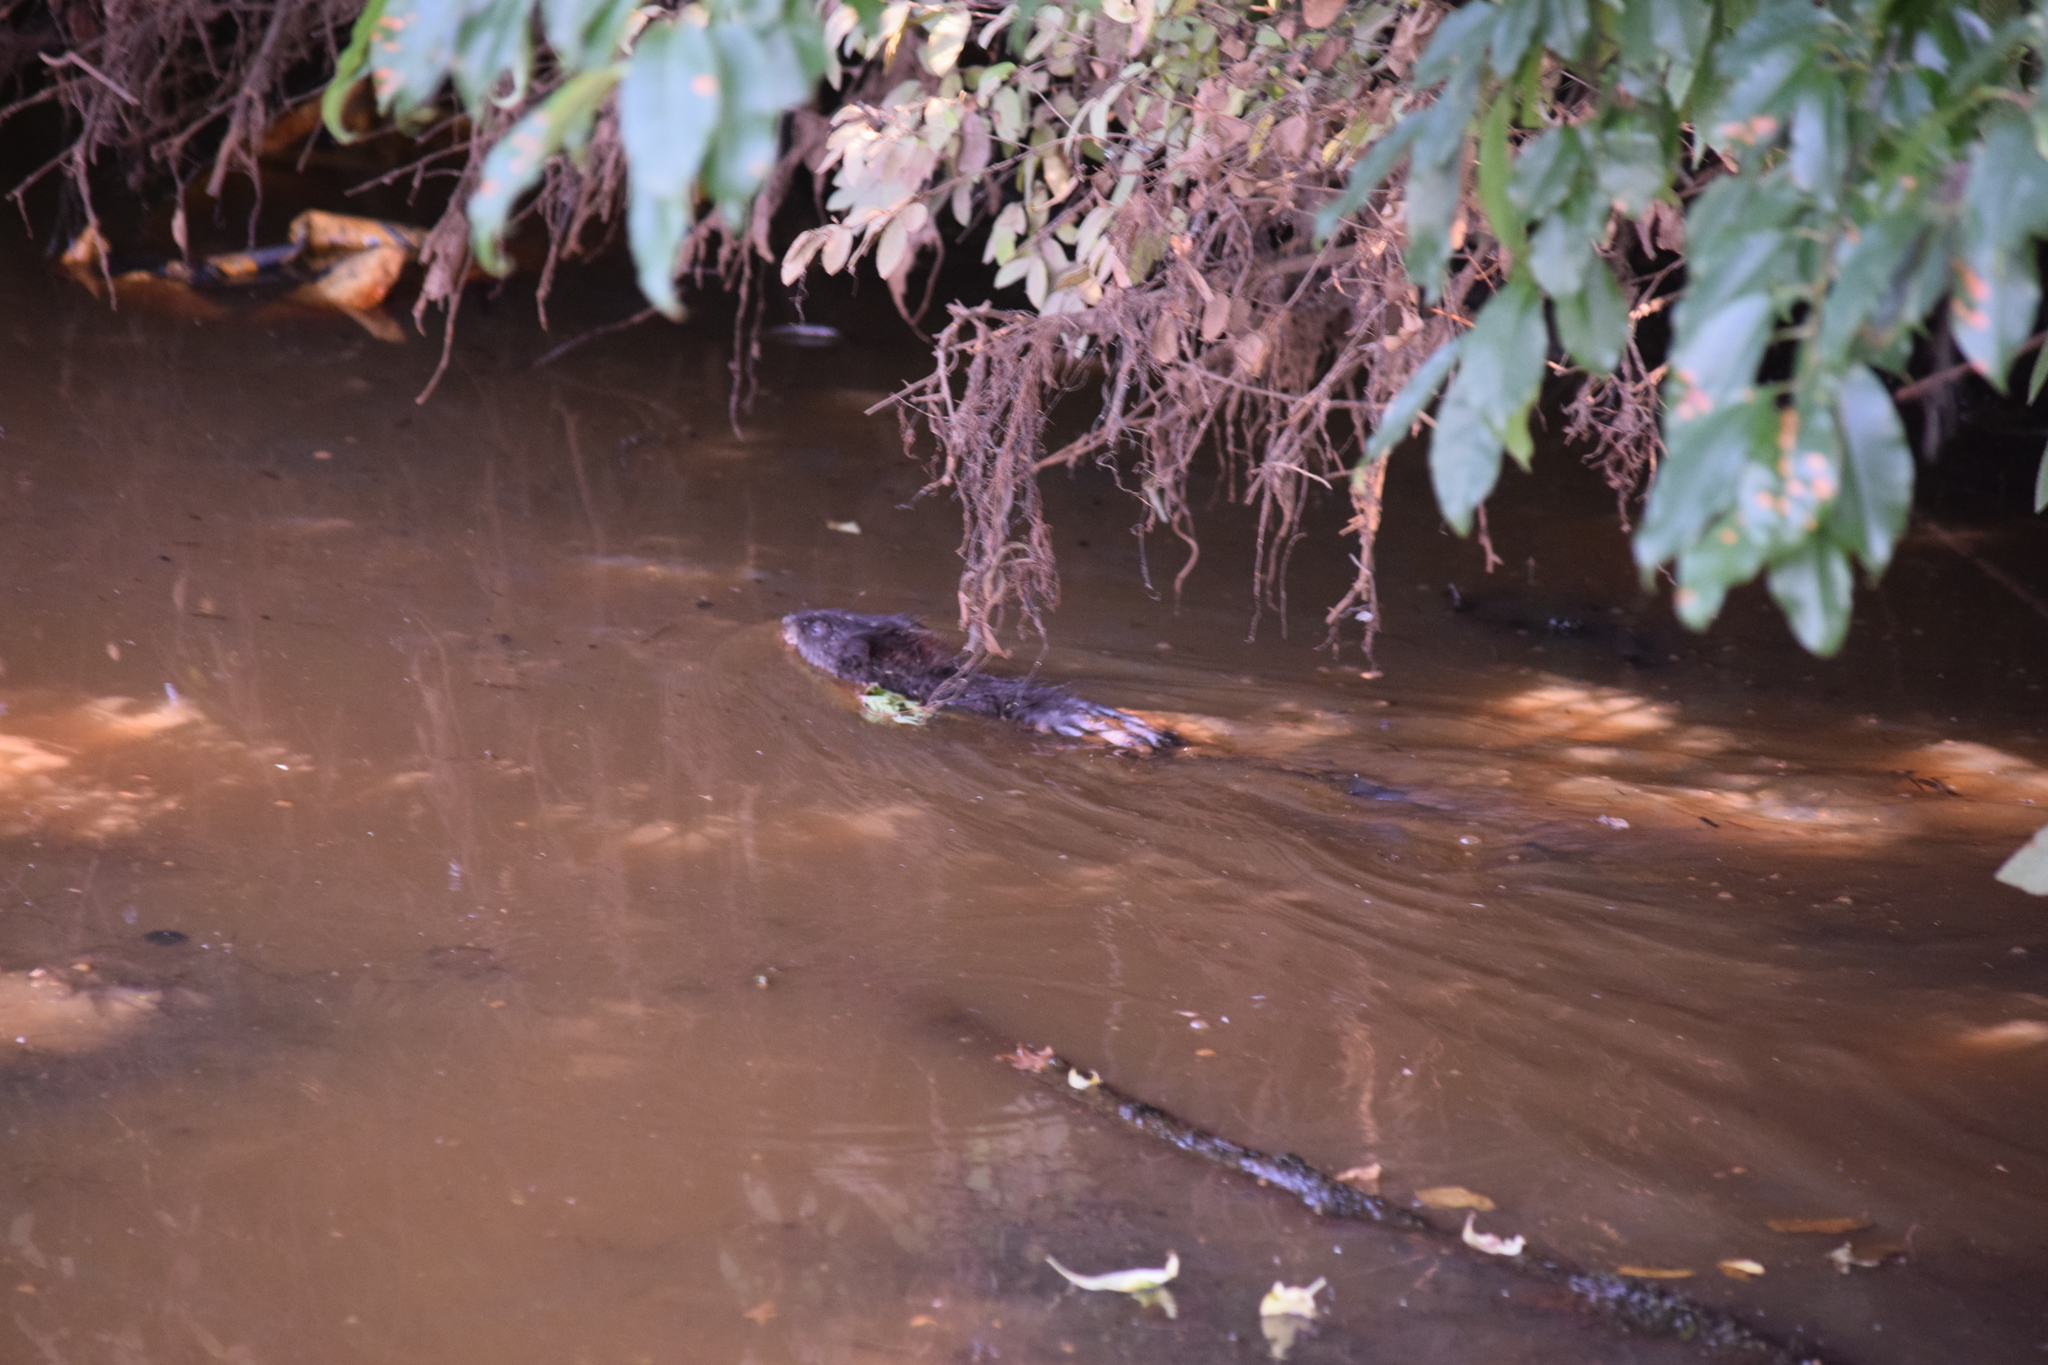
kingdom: Animalia
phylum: Chordata
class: Mammalia
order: Rodentia
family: Cricetidae
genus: Ondatra
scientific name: Ondatra zibethicus
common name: Muskrat
